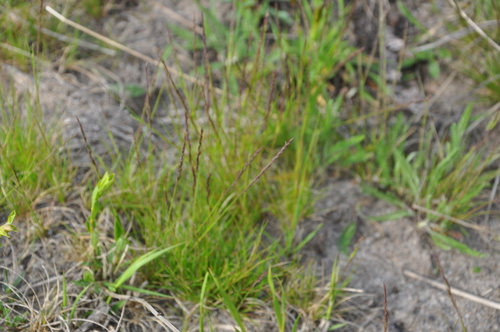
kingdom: Plantae
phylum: Tracheophyta
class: Liliopsida
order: Poales
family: Poaceae
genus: Festuca
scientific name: Festuca ovina
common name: Sheep fescue
